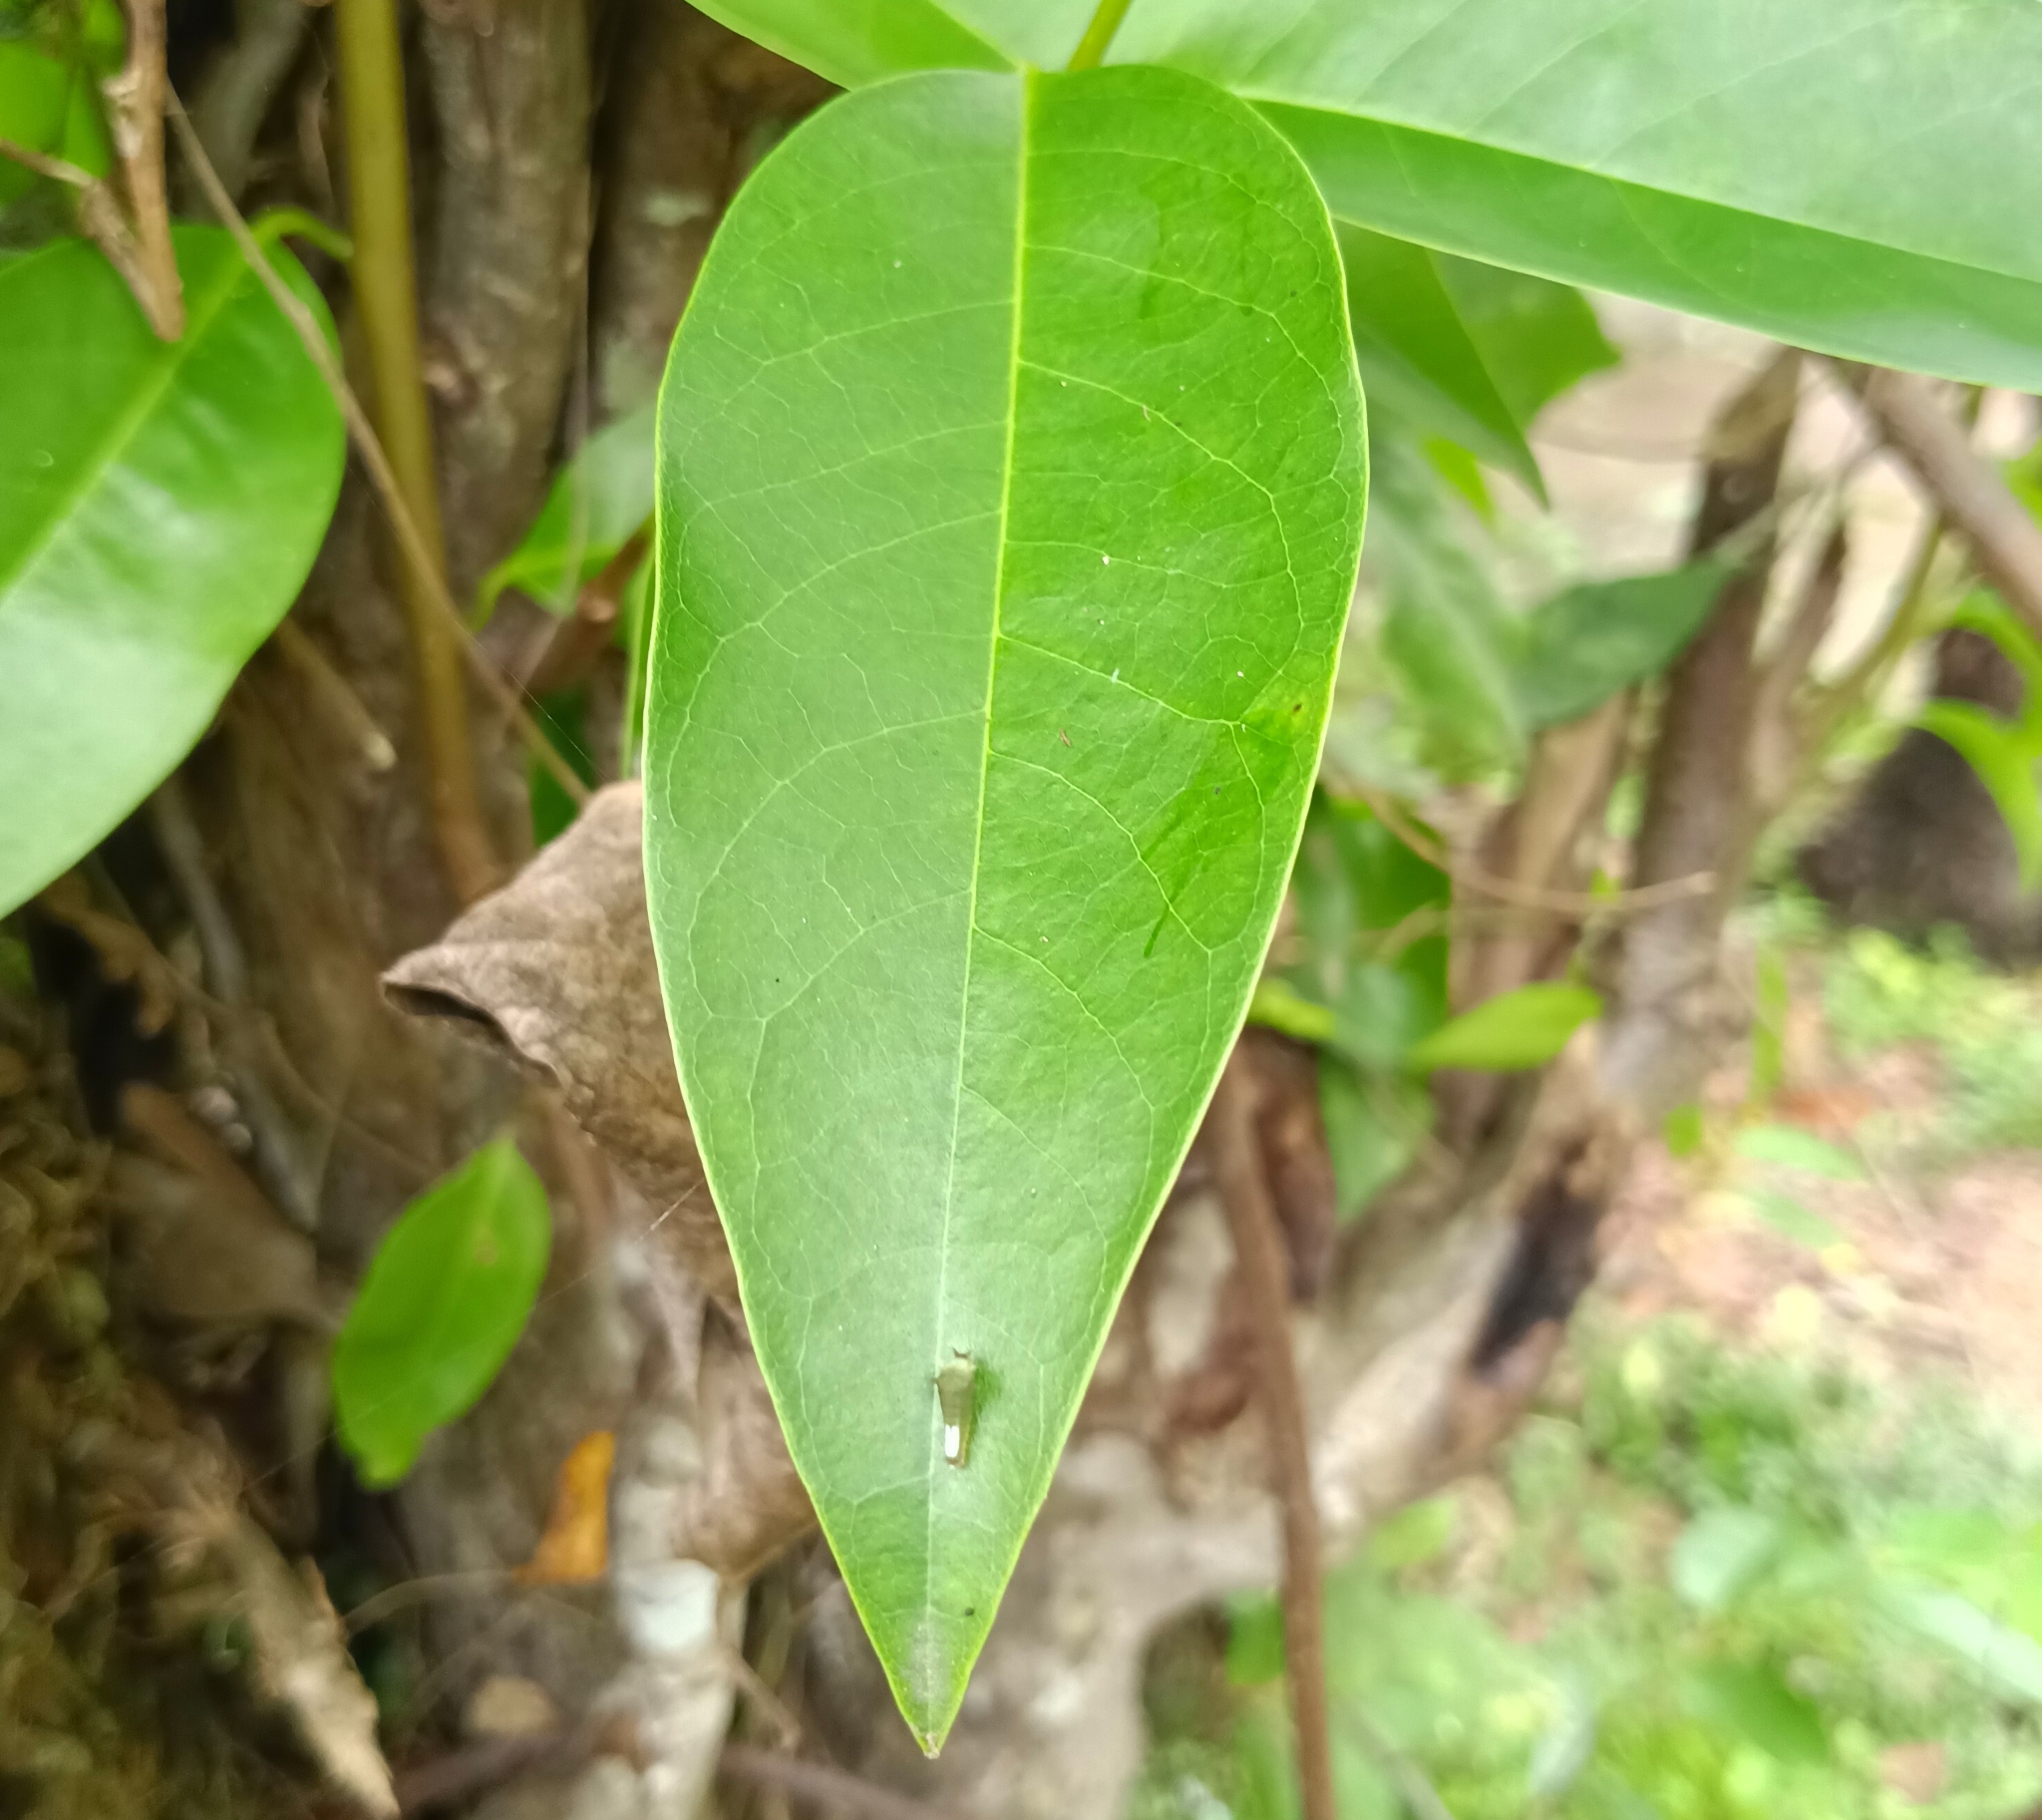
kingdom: Animalia
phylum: Arthropoda
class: Insecta
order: Lepidoptera
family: Papilionidae
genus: Graphium
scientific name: Graphium agamemnon
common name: Tailed jay
